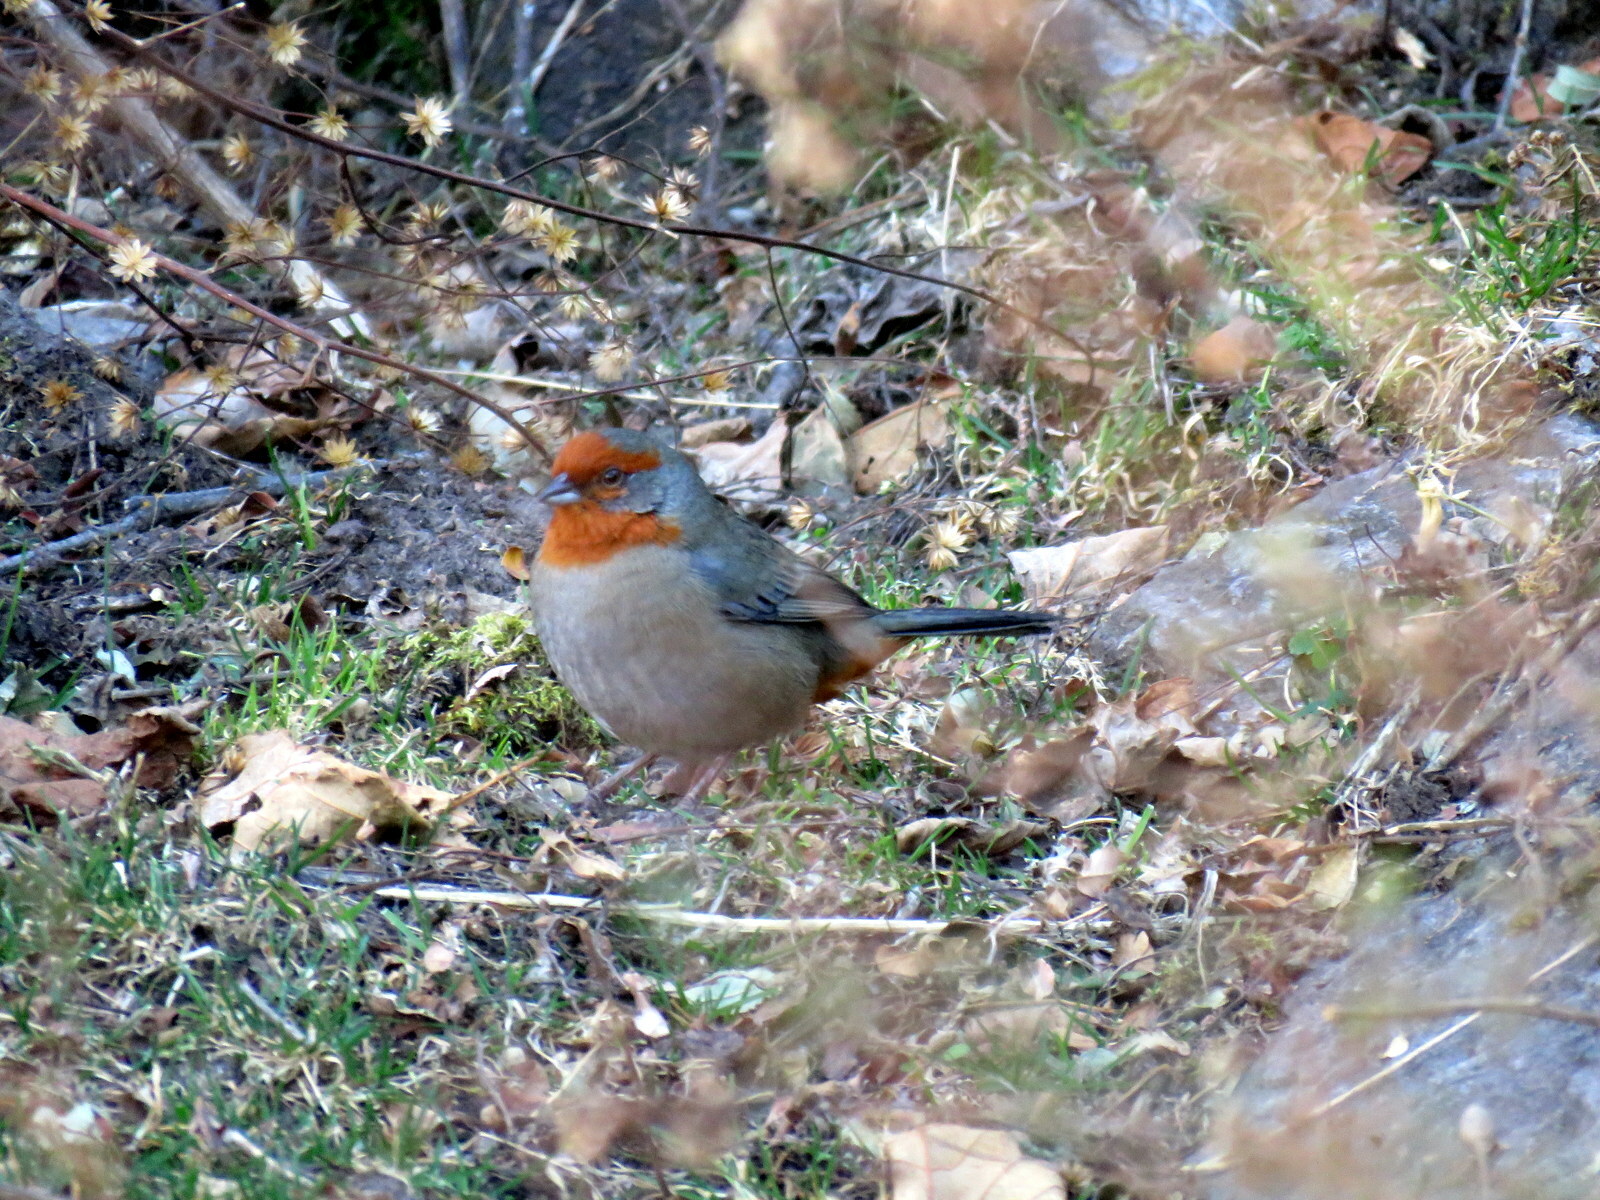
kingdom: Animalia
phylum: Chordata
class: Aves
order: Passeriformes
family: Thraupidae
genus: Poospiza
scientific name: Poospiza baeri
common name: Tucuman mountain-finch
